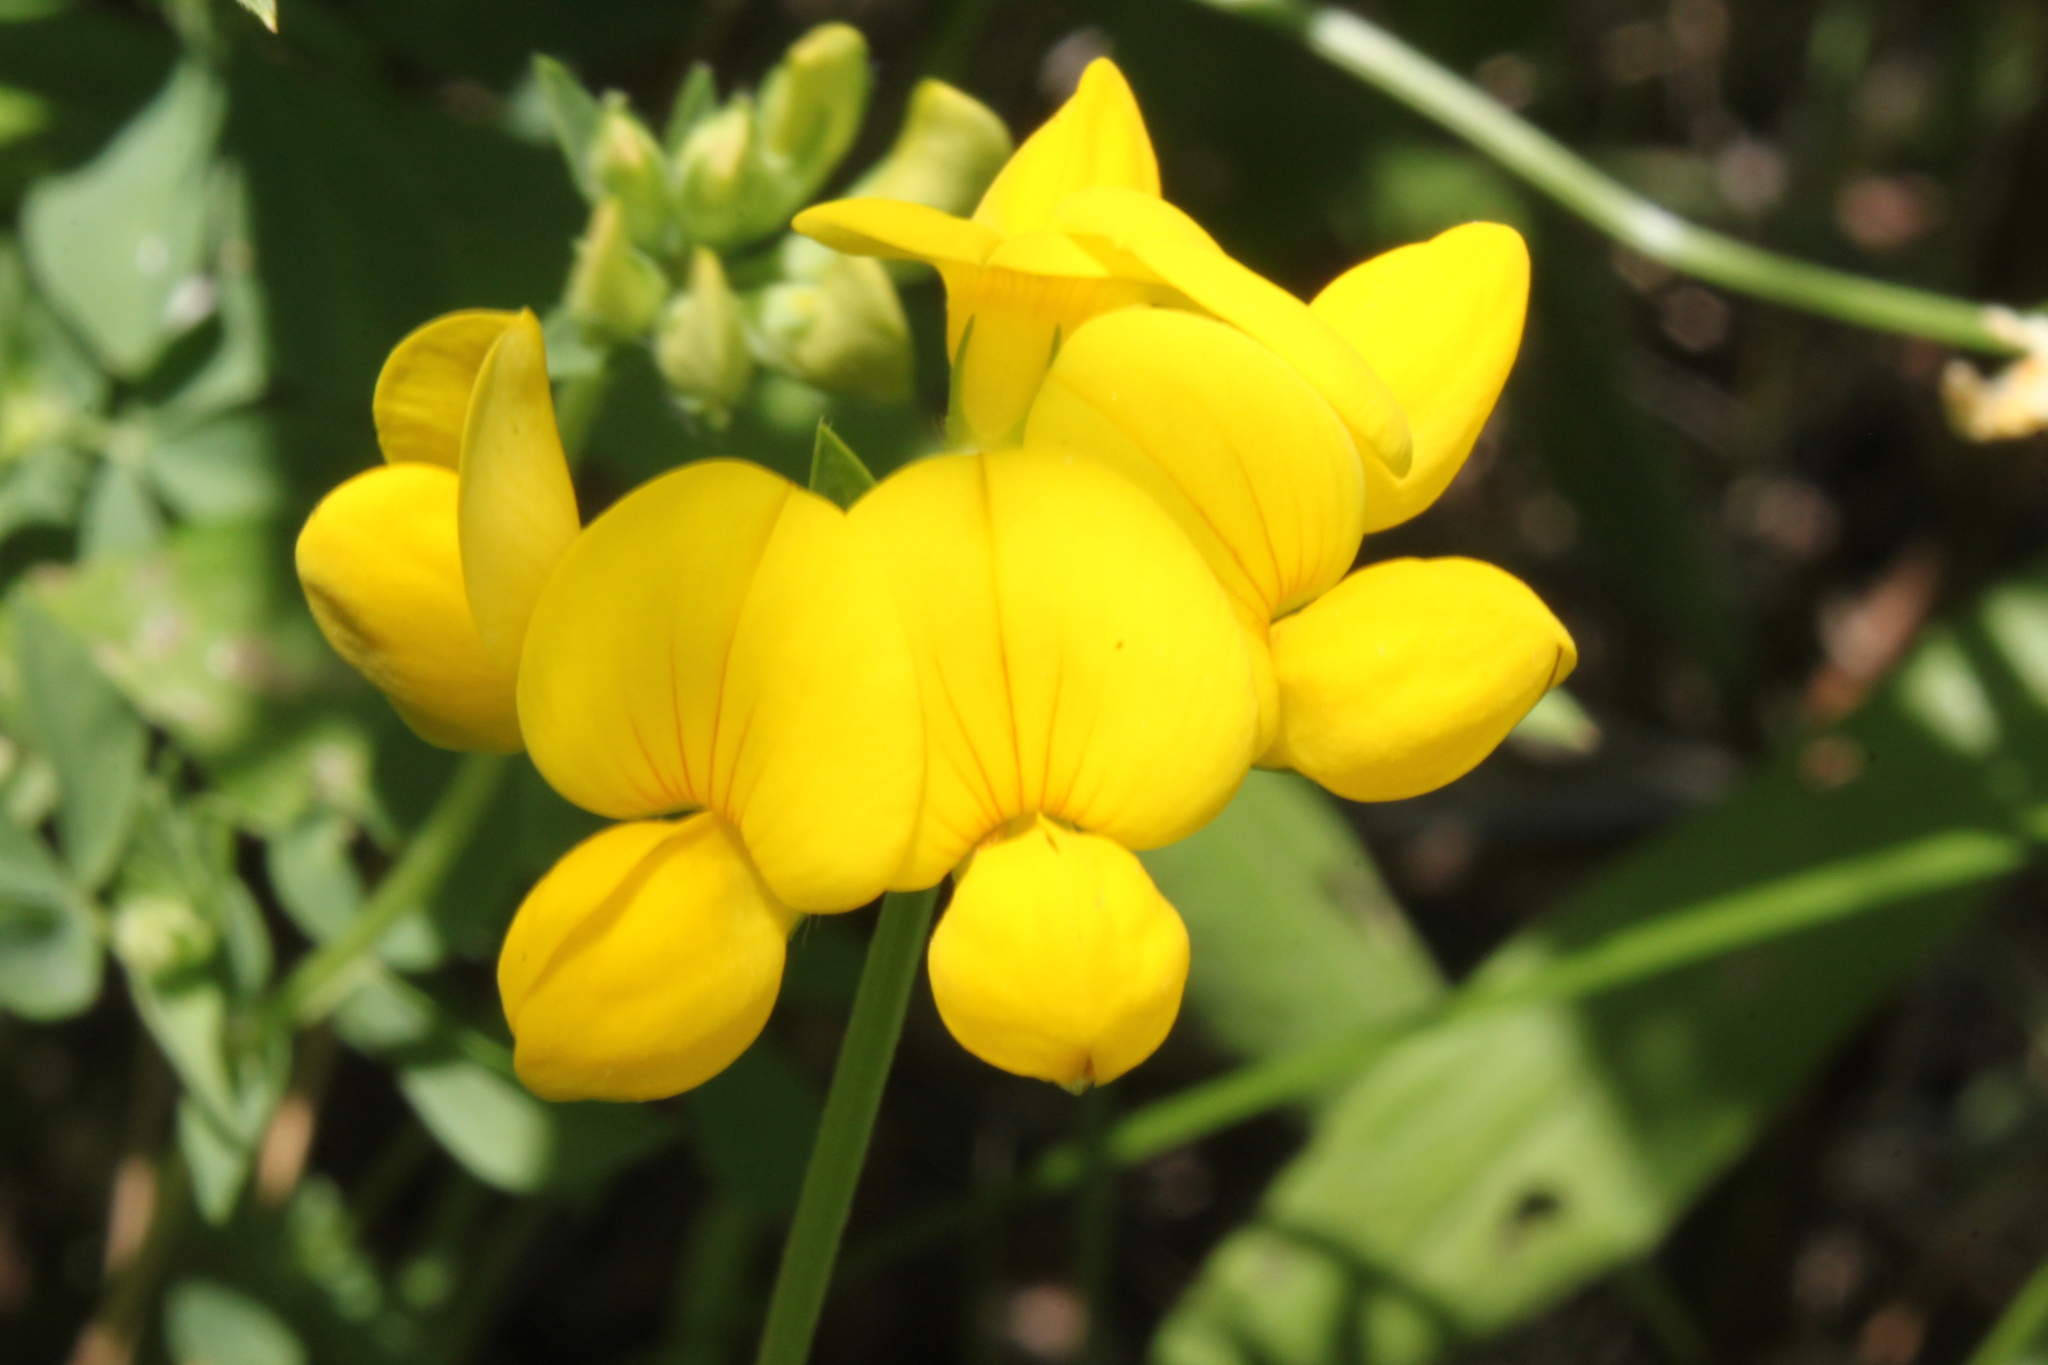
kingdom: Plantae
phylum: Tracheophyta
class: Magnoliopsida
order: Fabales
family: Fabaceae
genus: Lotus
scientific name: Lotus corniculatus
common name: Common bird's-foot-trefoil
